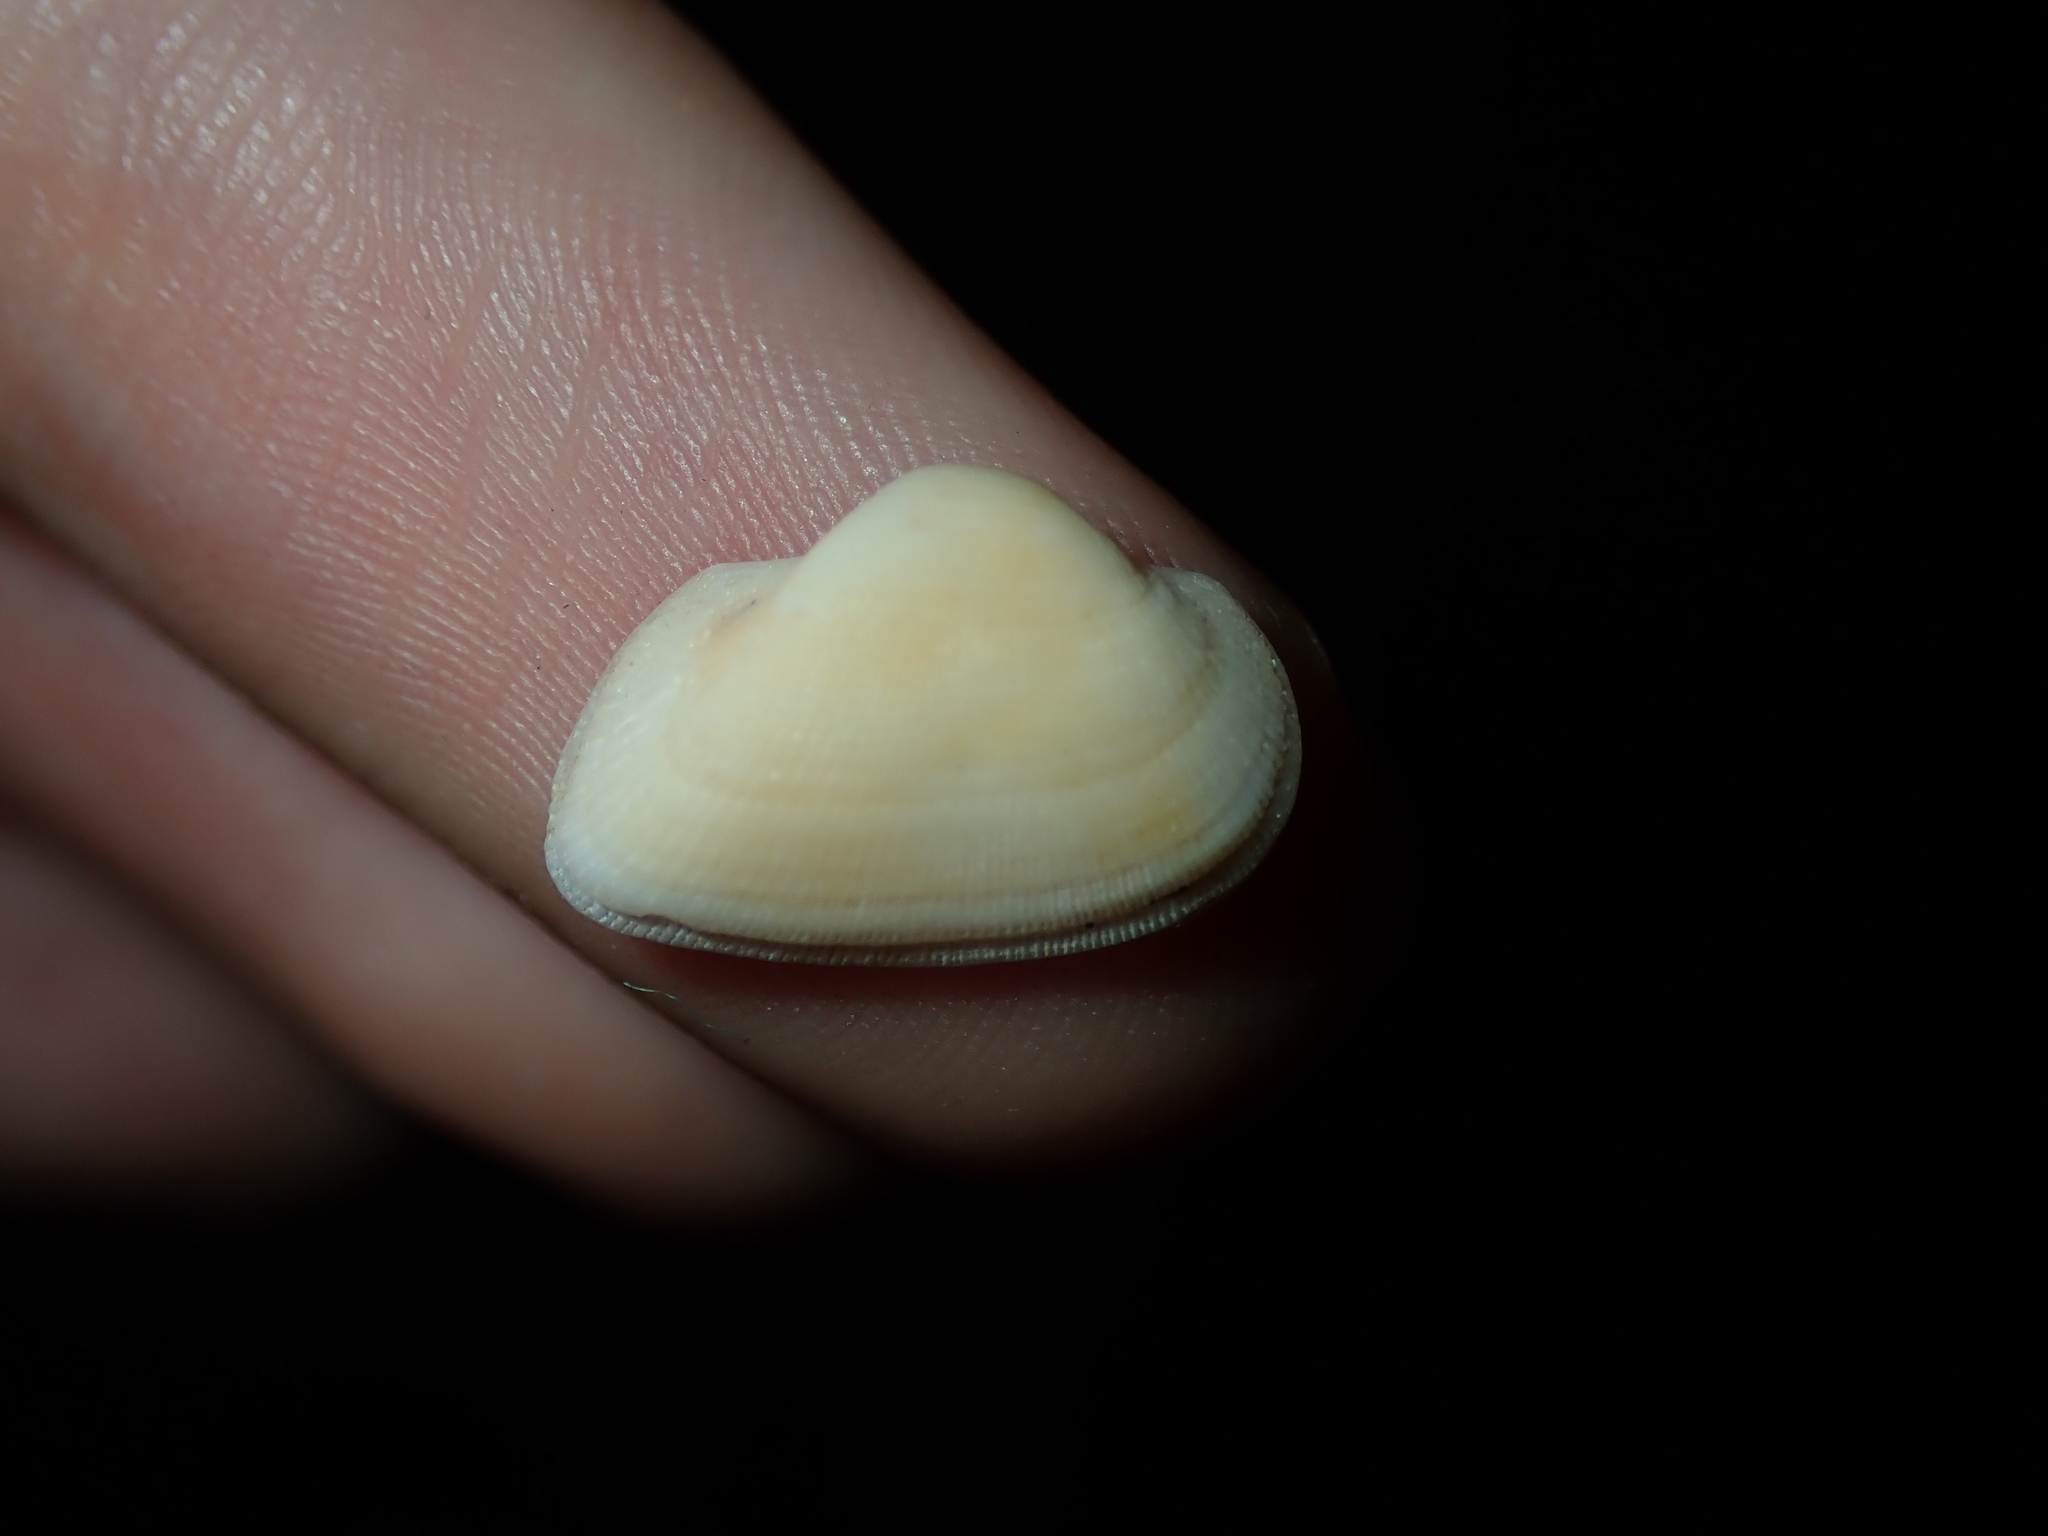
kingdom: Animalia
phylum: Mollusca
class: Bivalvia
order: Arcida
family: Noetiidae
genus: Striarca
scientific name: Striarca pisolina
